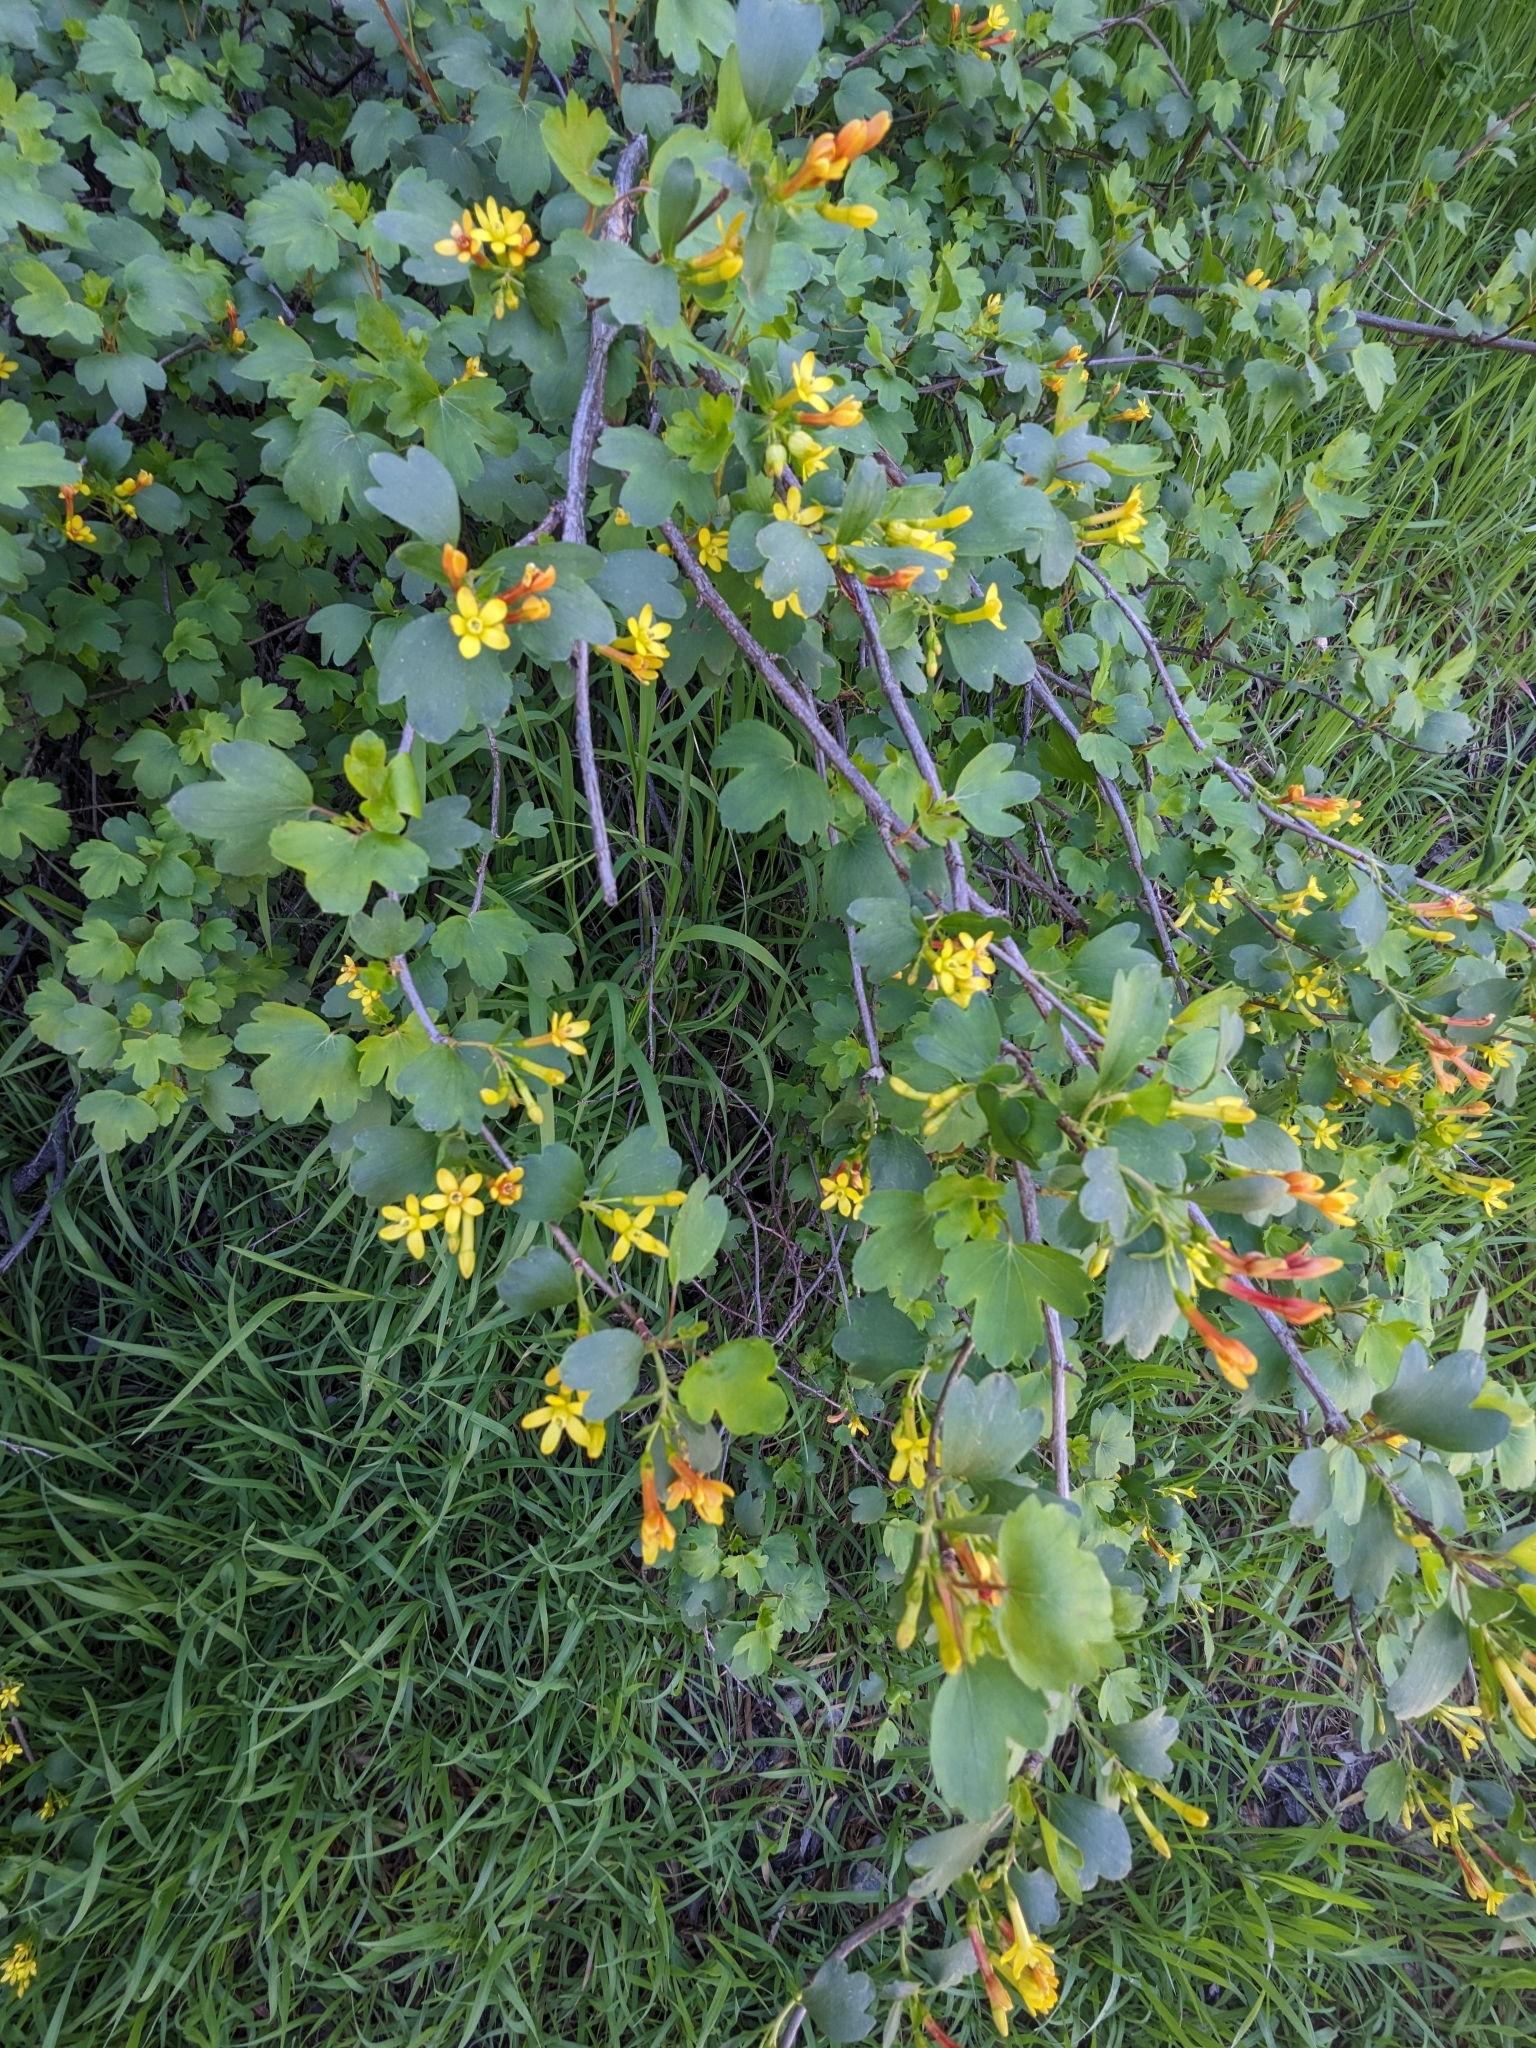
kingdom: Plantae
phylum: Tracheophyta
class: Magnoliopsida
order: Saxifragales
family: Grossulariaceae
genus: Ribes
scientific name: Ribes aureum
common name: Golden currant
